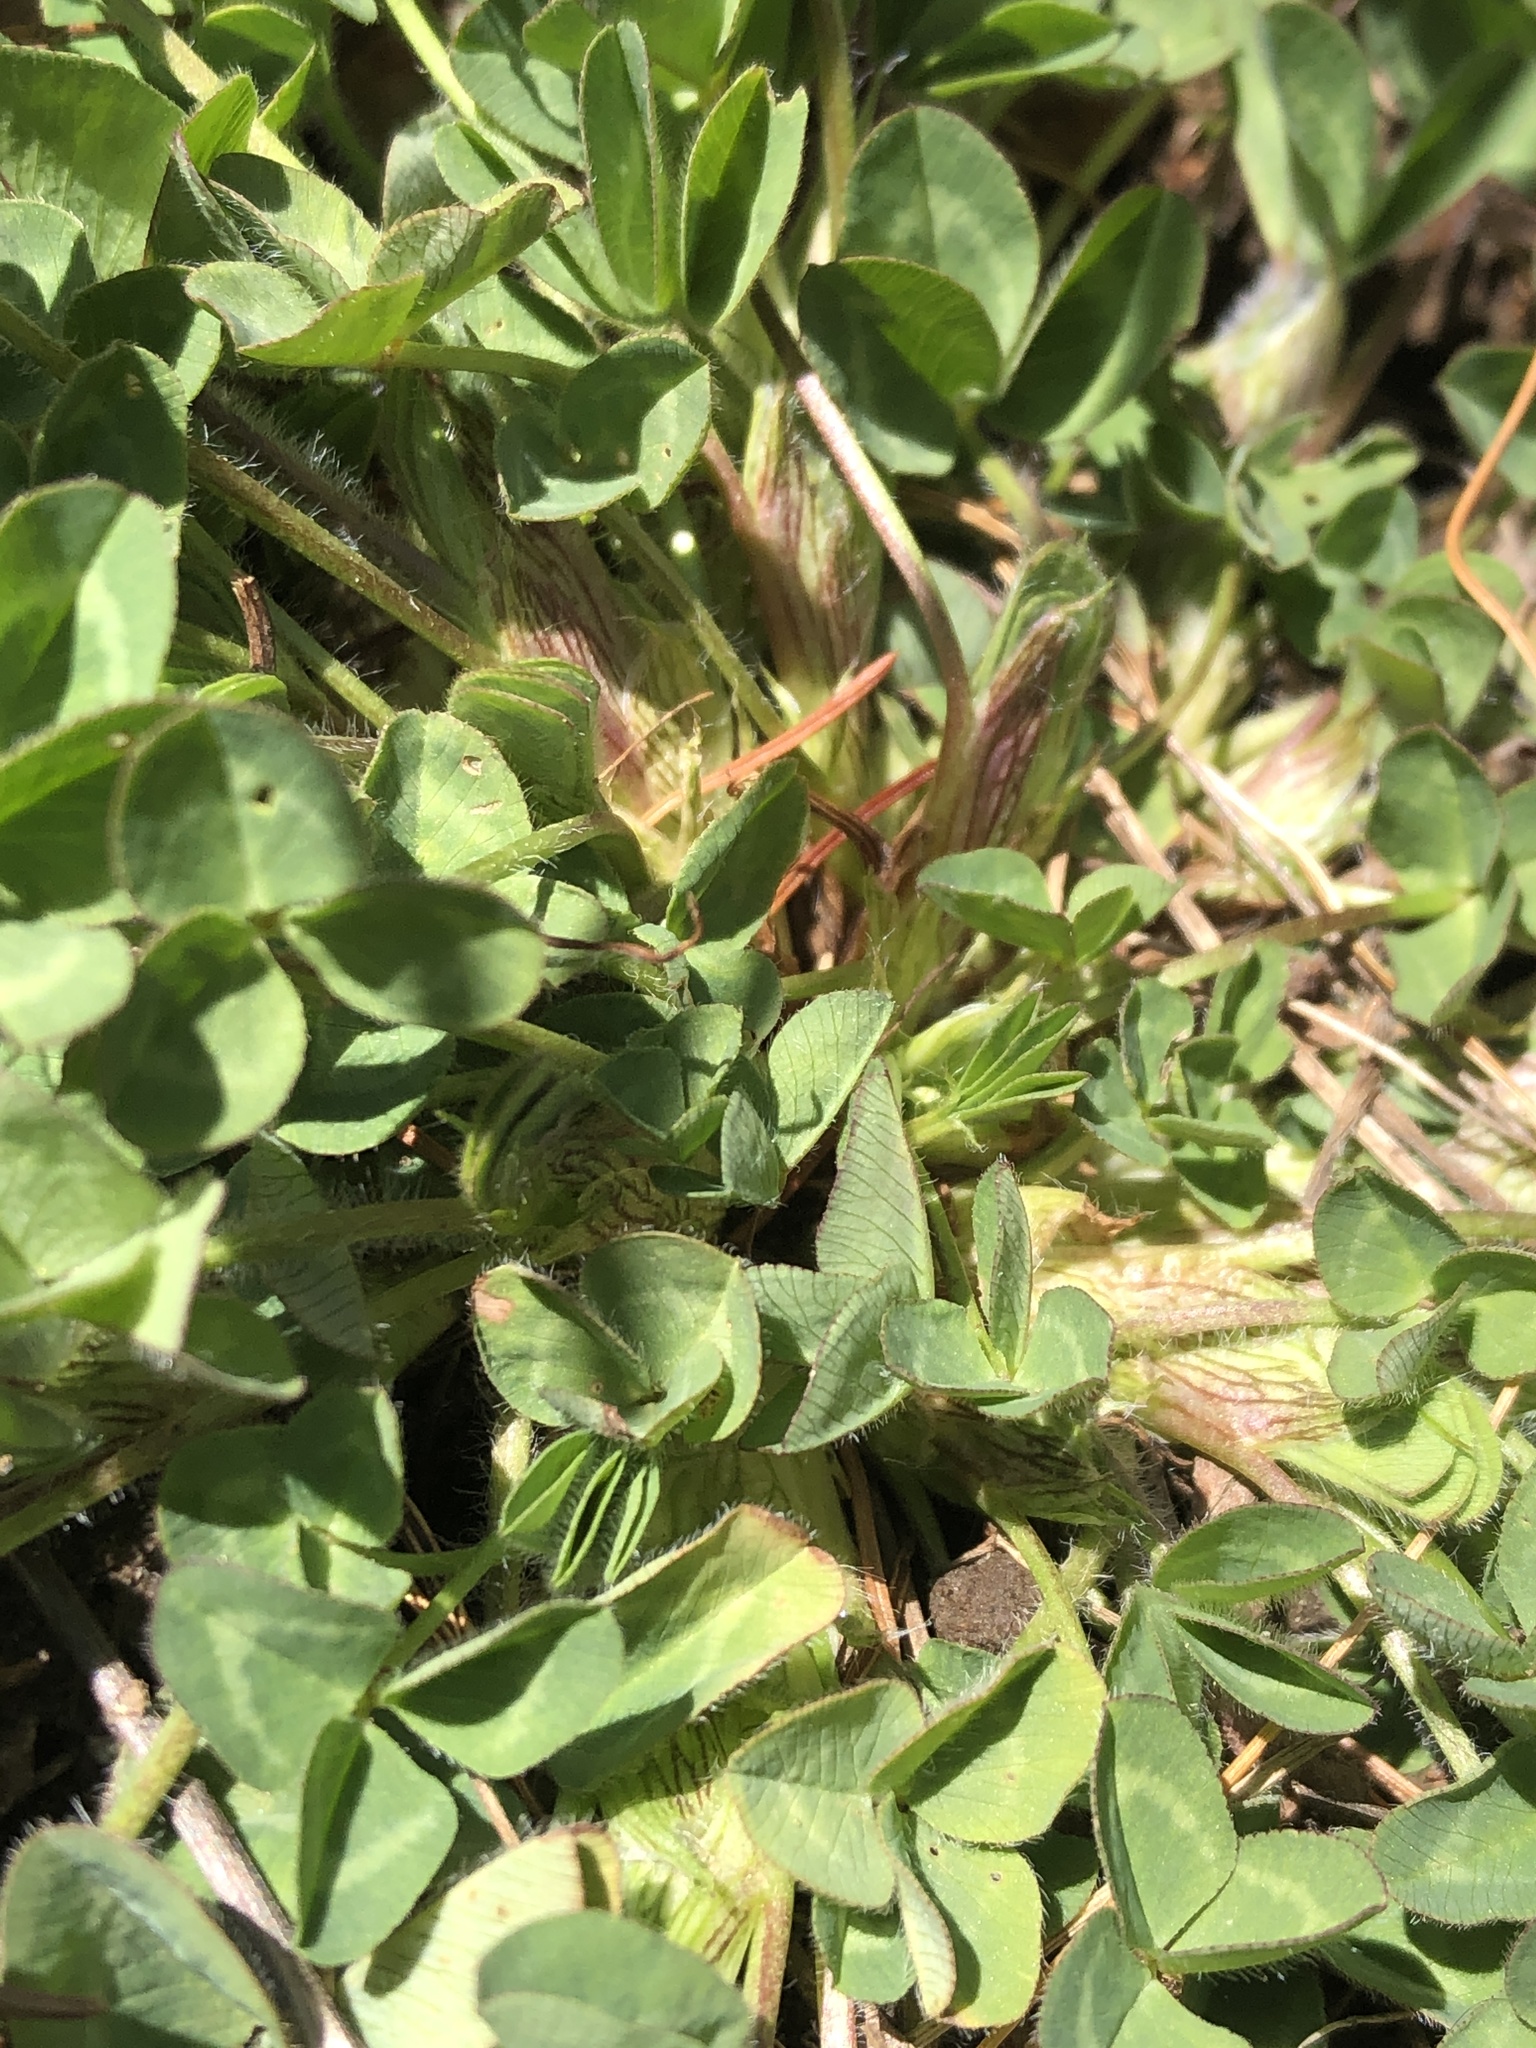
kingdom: Plantae
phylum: Tracheophyta
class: Magnoliopsida
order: Fabales
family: Fabaceae
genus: Trifolium
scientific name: Trifolium pratense
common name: Red clover
